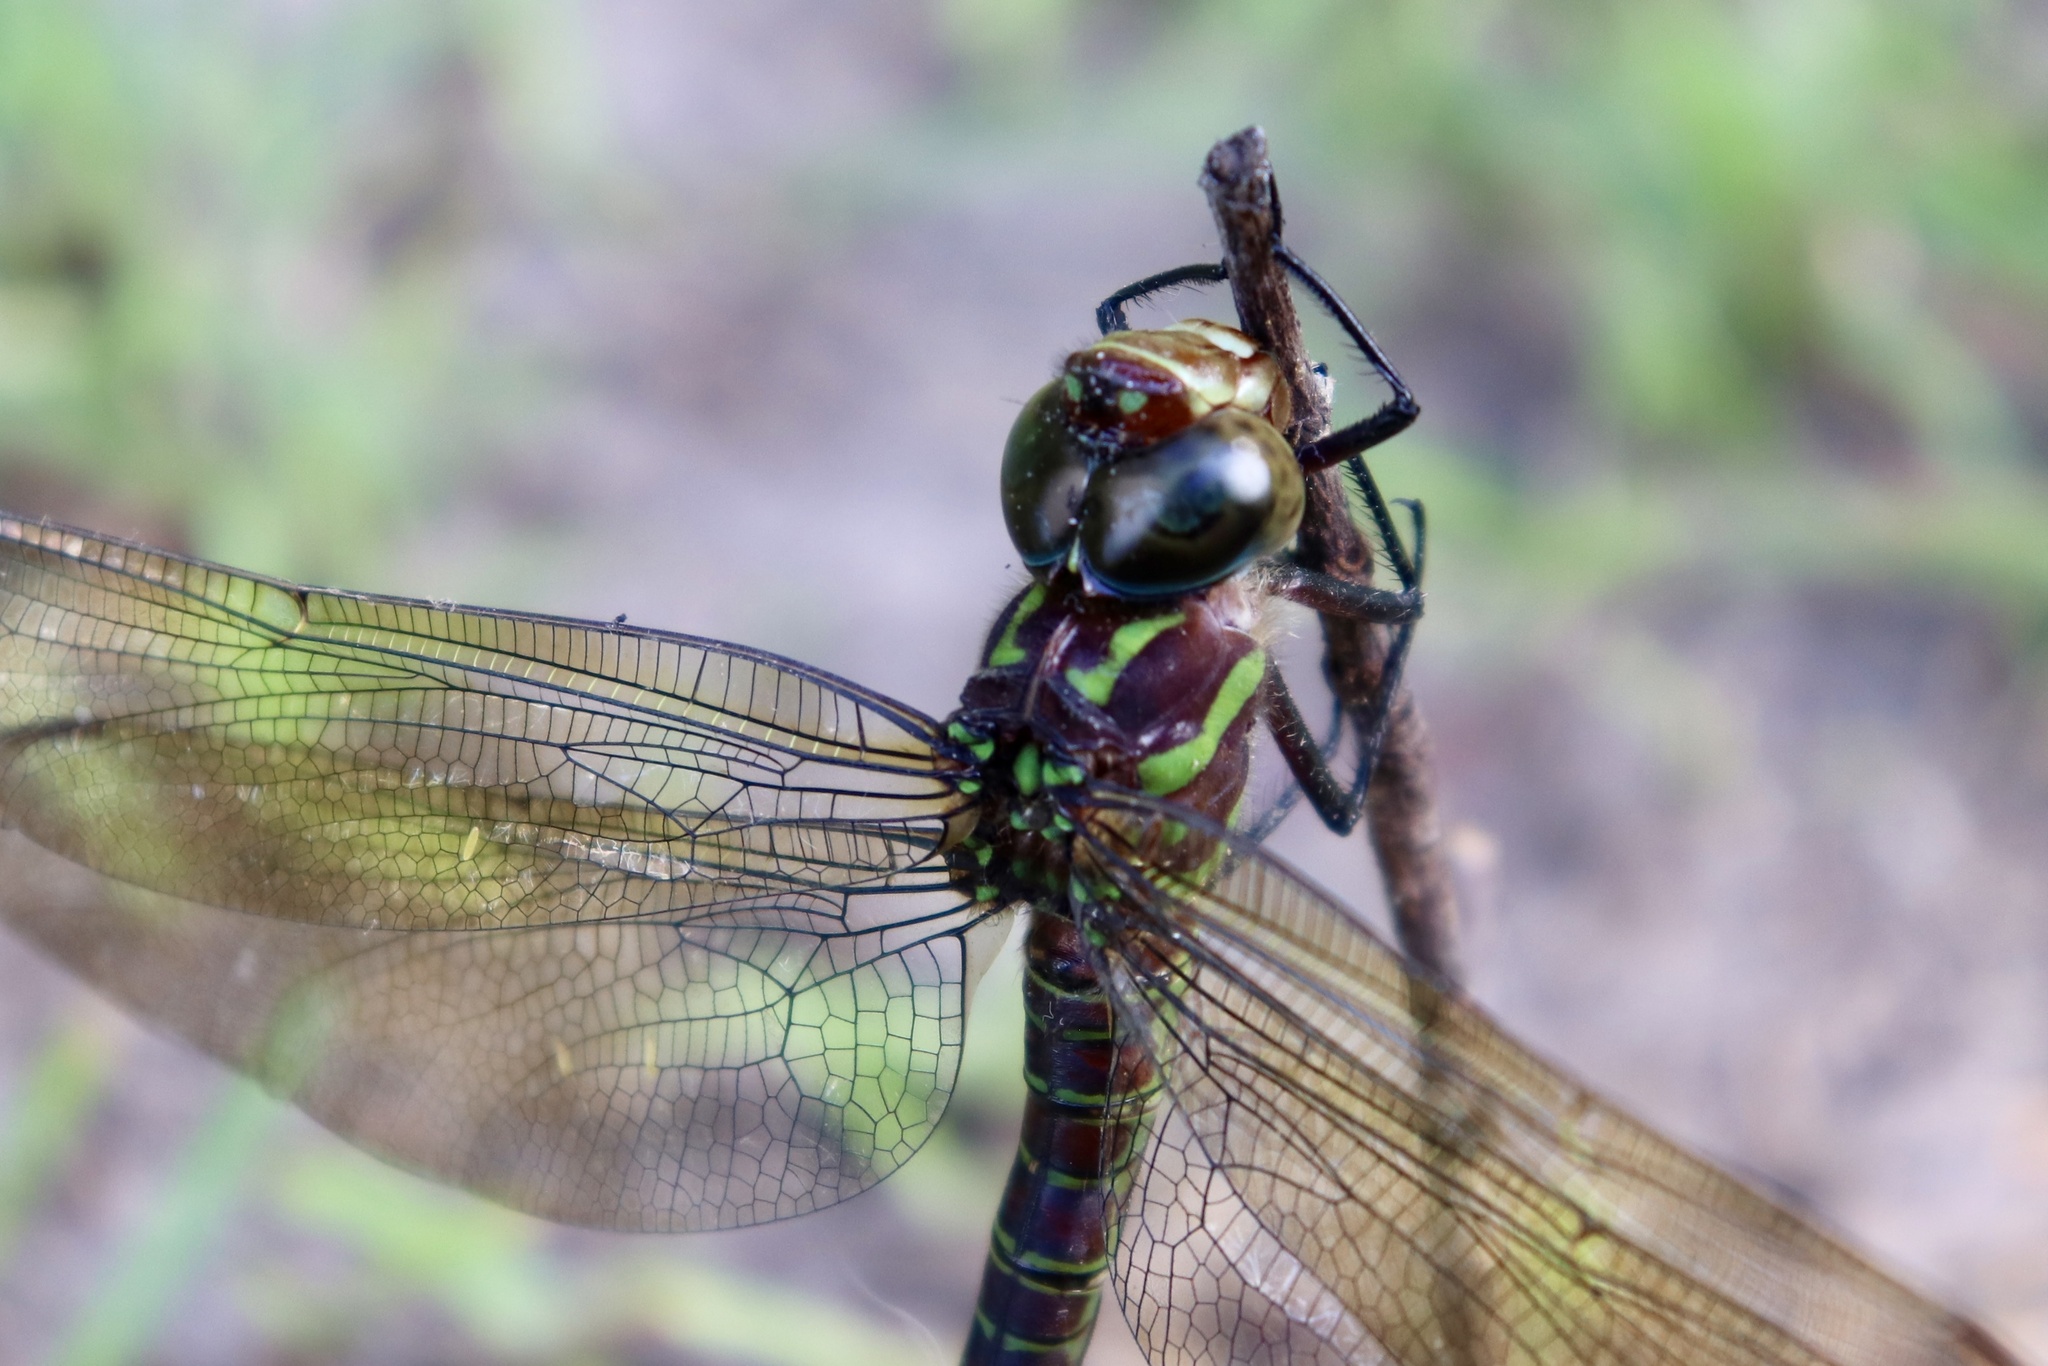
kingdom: Animalia
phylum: Arthropoda
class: Insecta
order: Odonata
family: Aeshnidae
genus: Epiaeschna
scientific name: Epiaeschna heros
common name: Swamp darner
